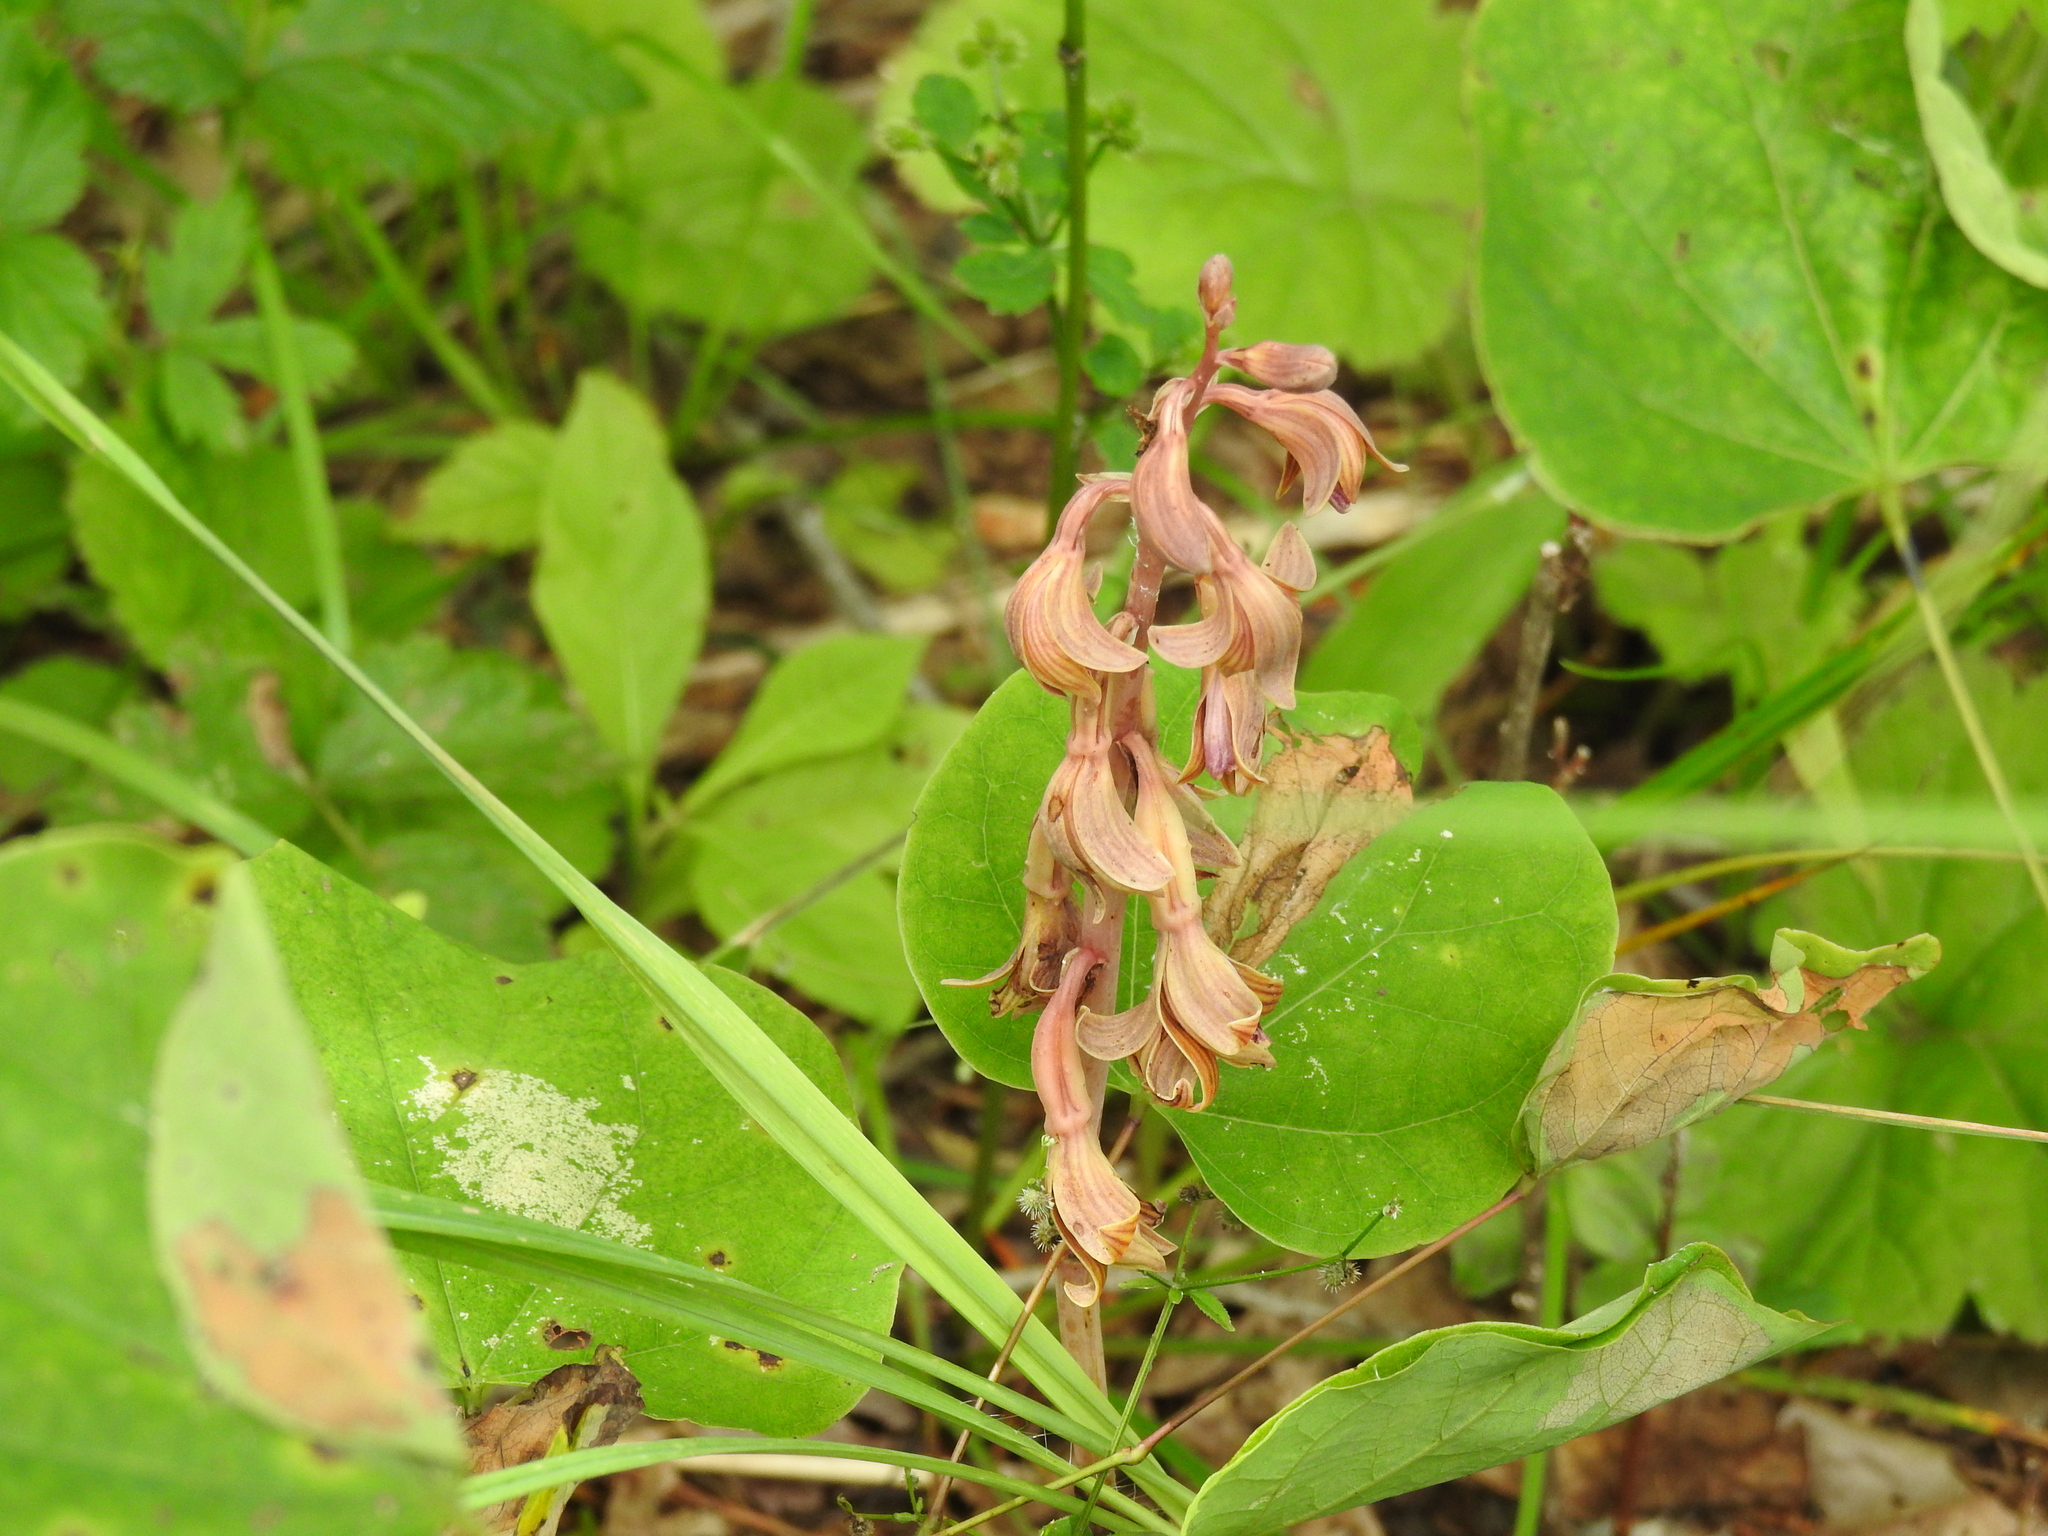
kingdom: Plantae
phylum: Tracheophyta
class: Liliopsida
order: Asparagales
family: Orchidaceae
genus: Bletia
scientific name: Bletia spicata
